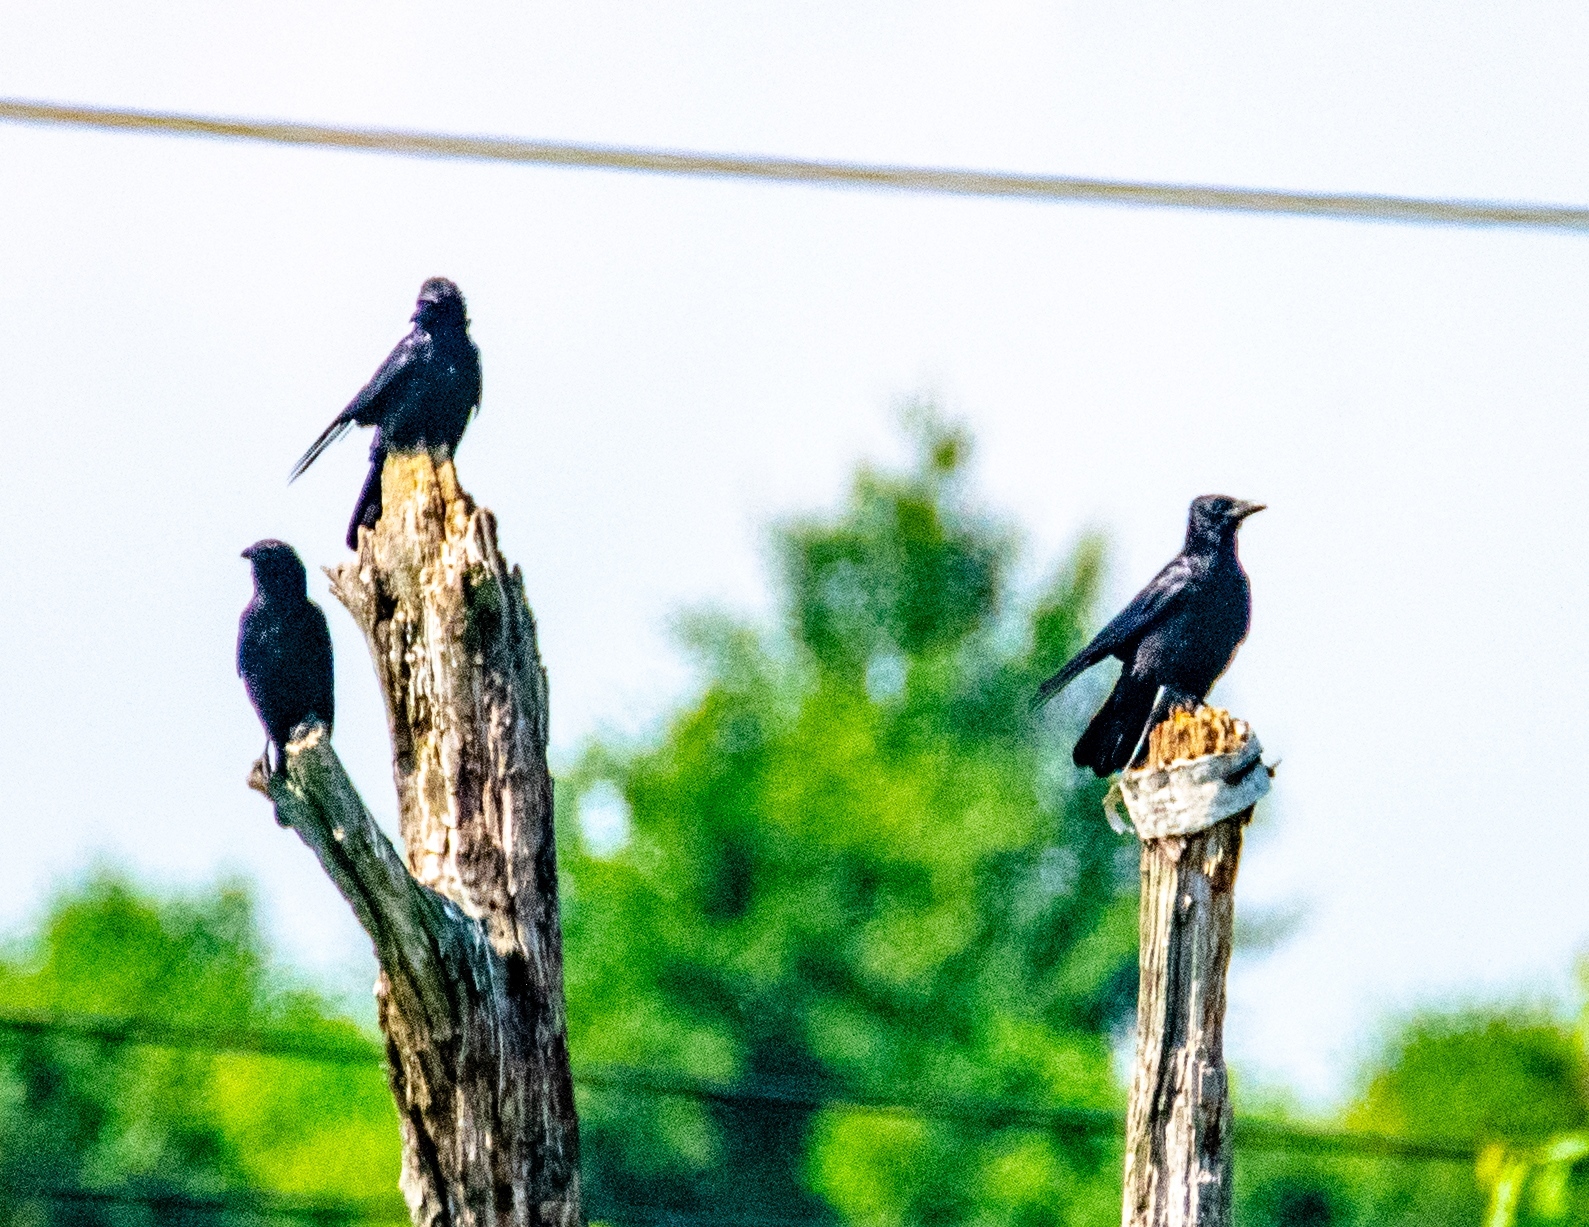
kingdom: Animalia
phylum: Chordata
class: Aves
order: Passeriformes
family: Corvidae
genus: Corvus
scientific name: Corvus corone
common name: Carrion crow
